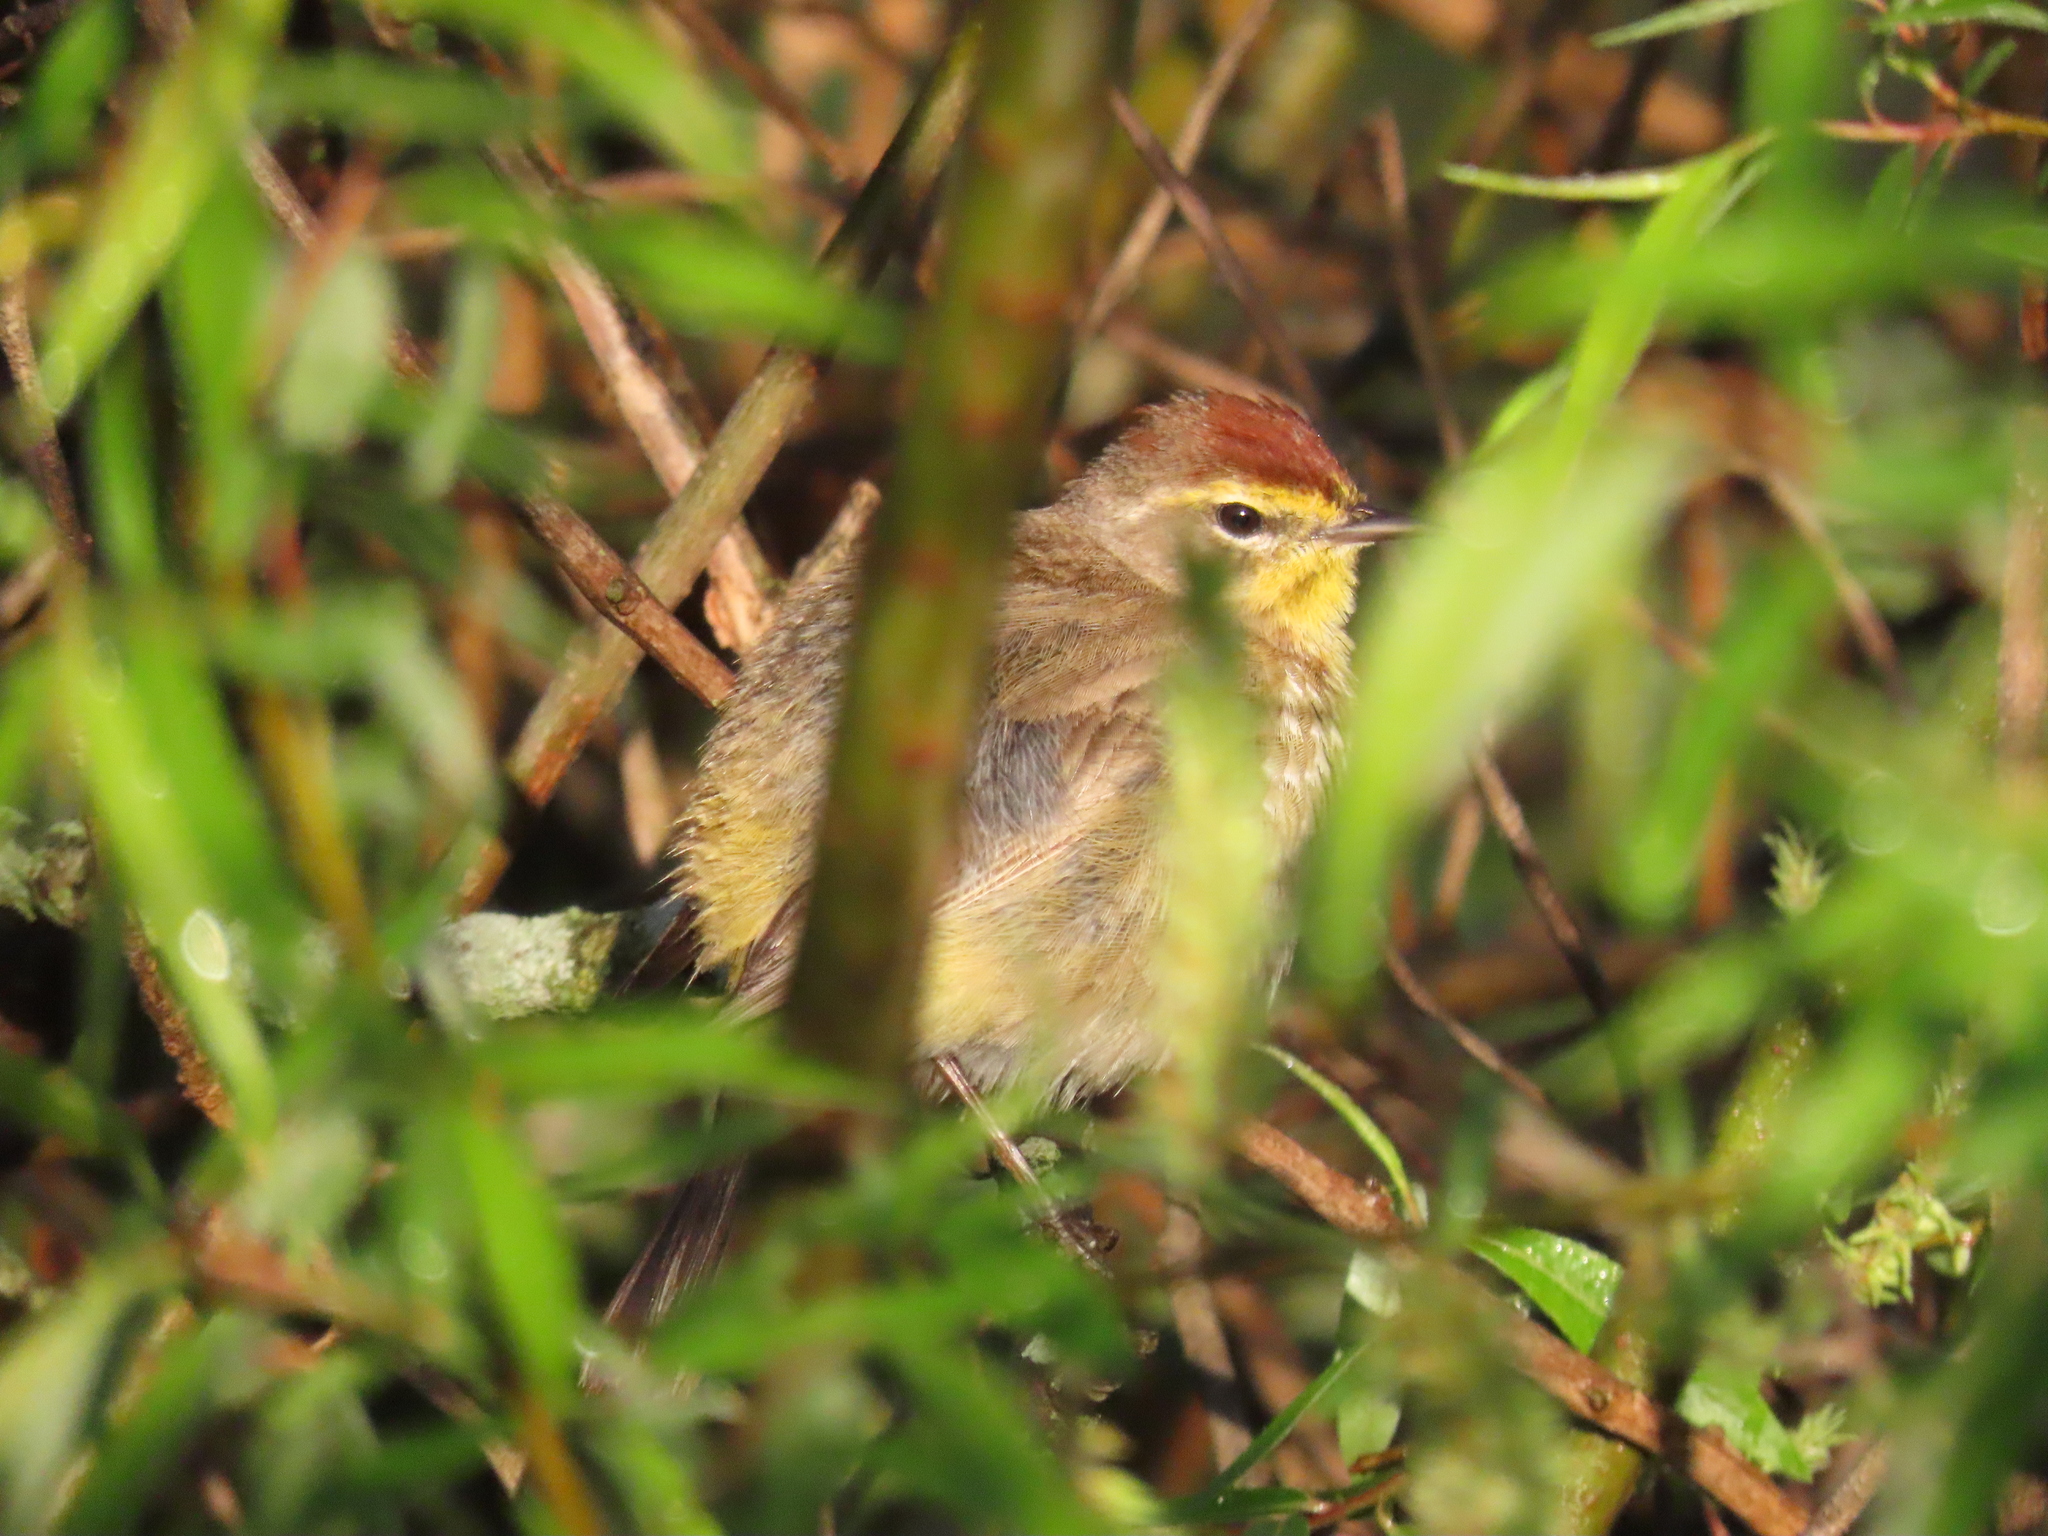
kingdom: Animalia
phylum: Chordata
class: Aves
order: Passeriformes
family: Parulidae
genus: Setophaga
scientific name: Setophaga palmarum
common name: Palm warbler
